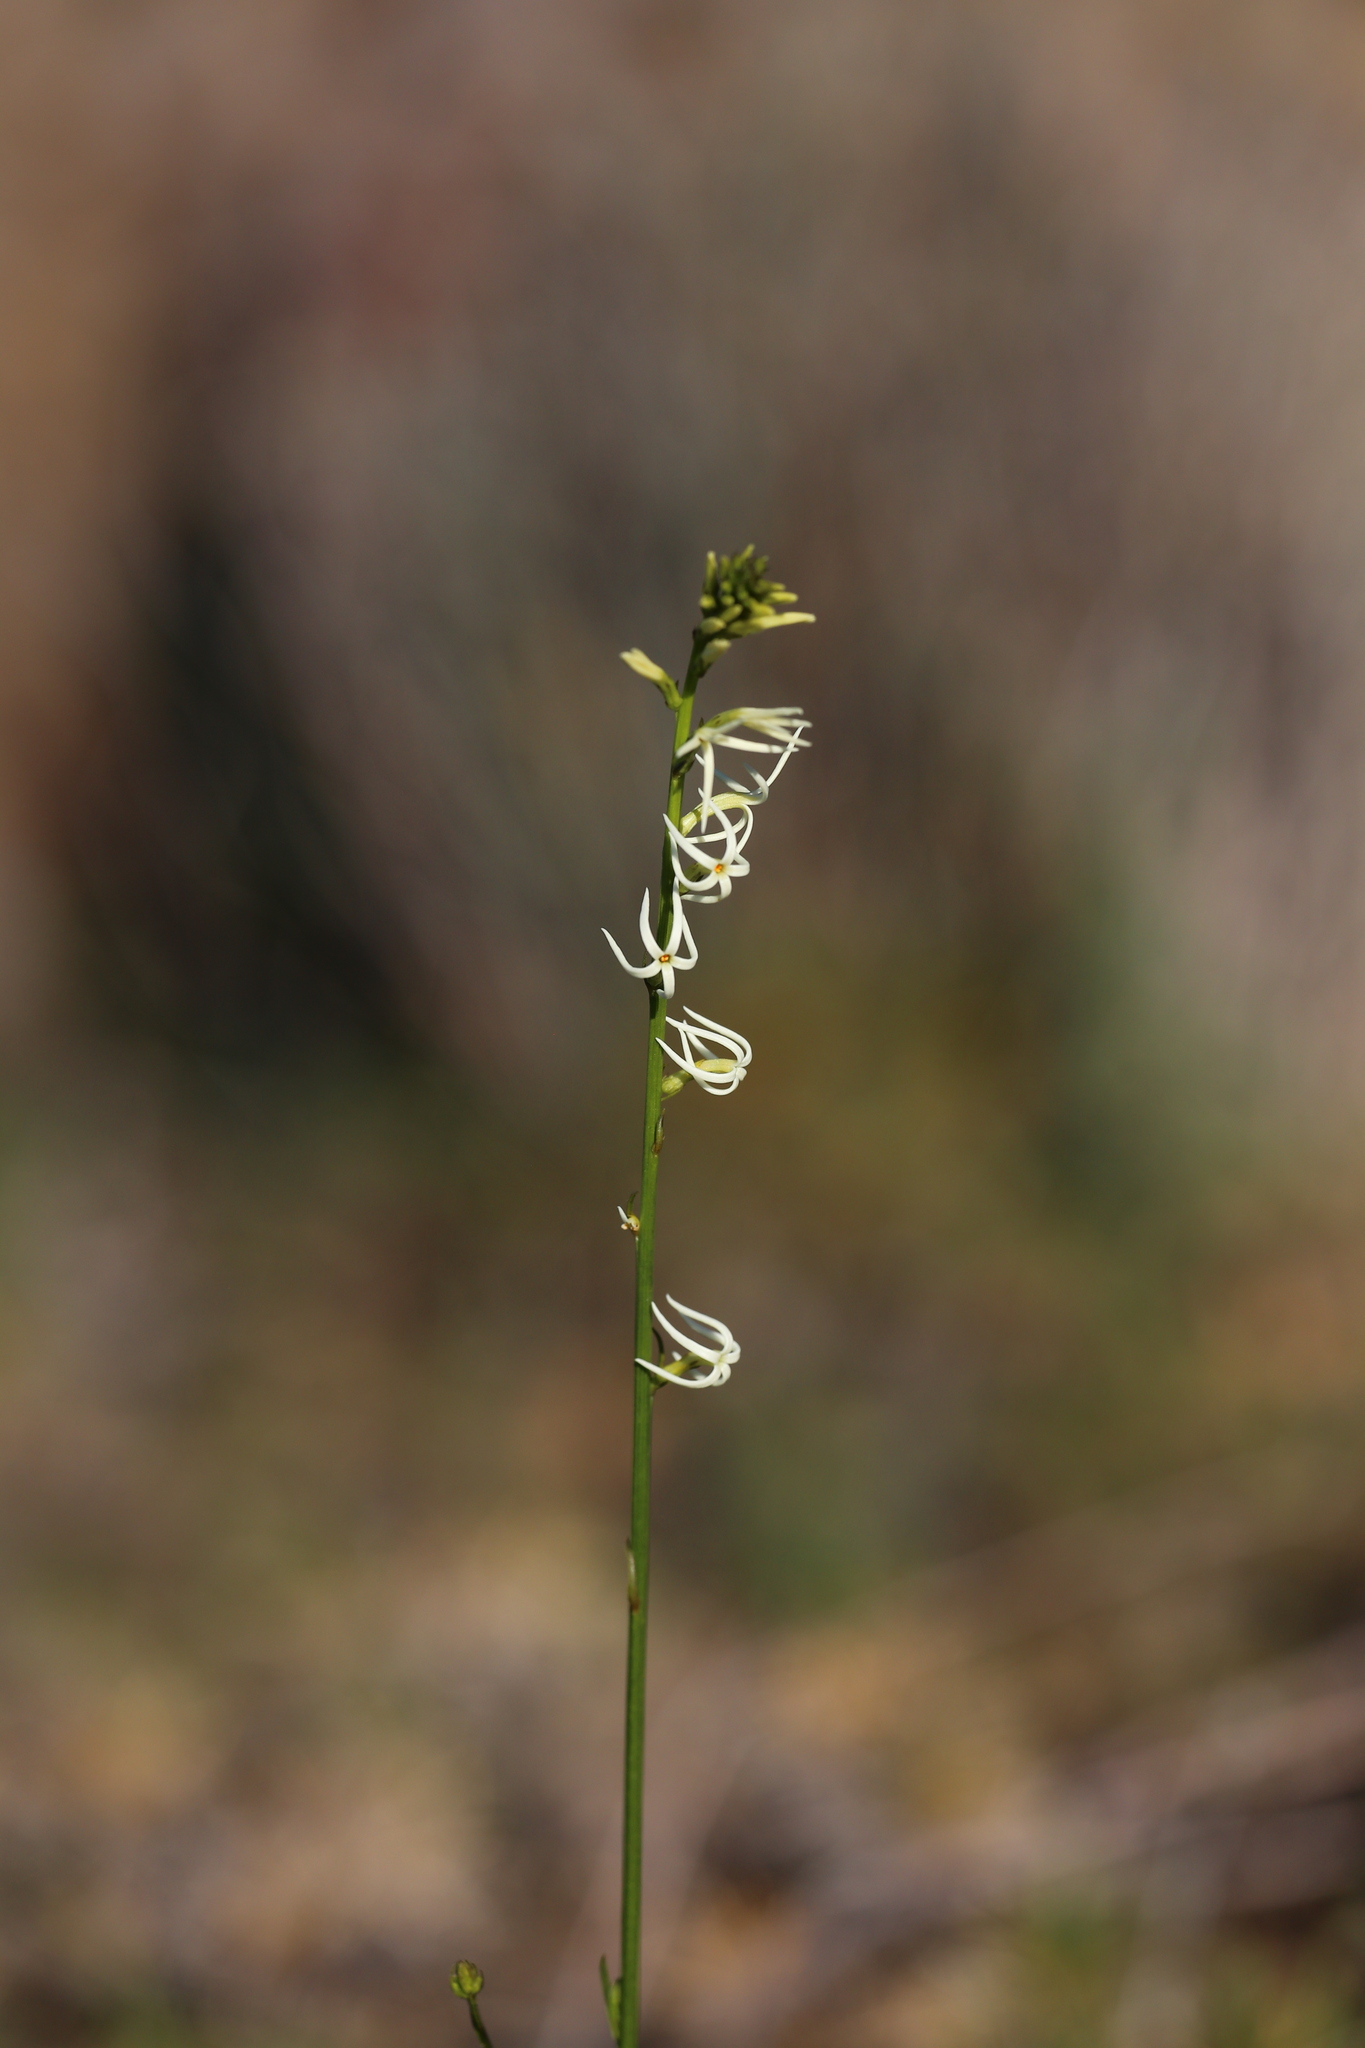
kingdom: Plantae
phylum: Tracheophyta
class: Magnoliopsida
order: Celastrales
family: Celastraceae
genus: Tripterococcus
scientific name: Tripterococcus brunonis
